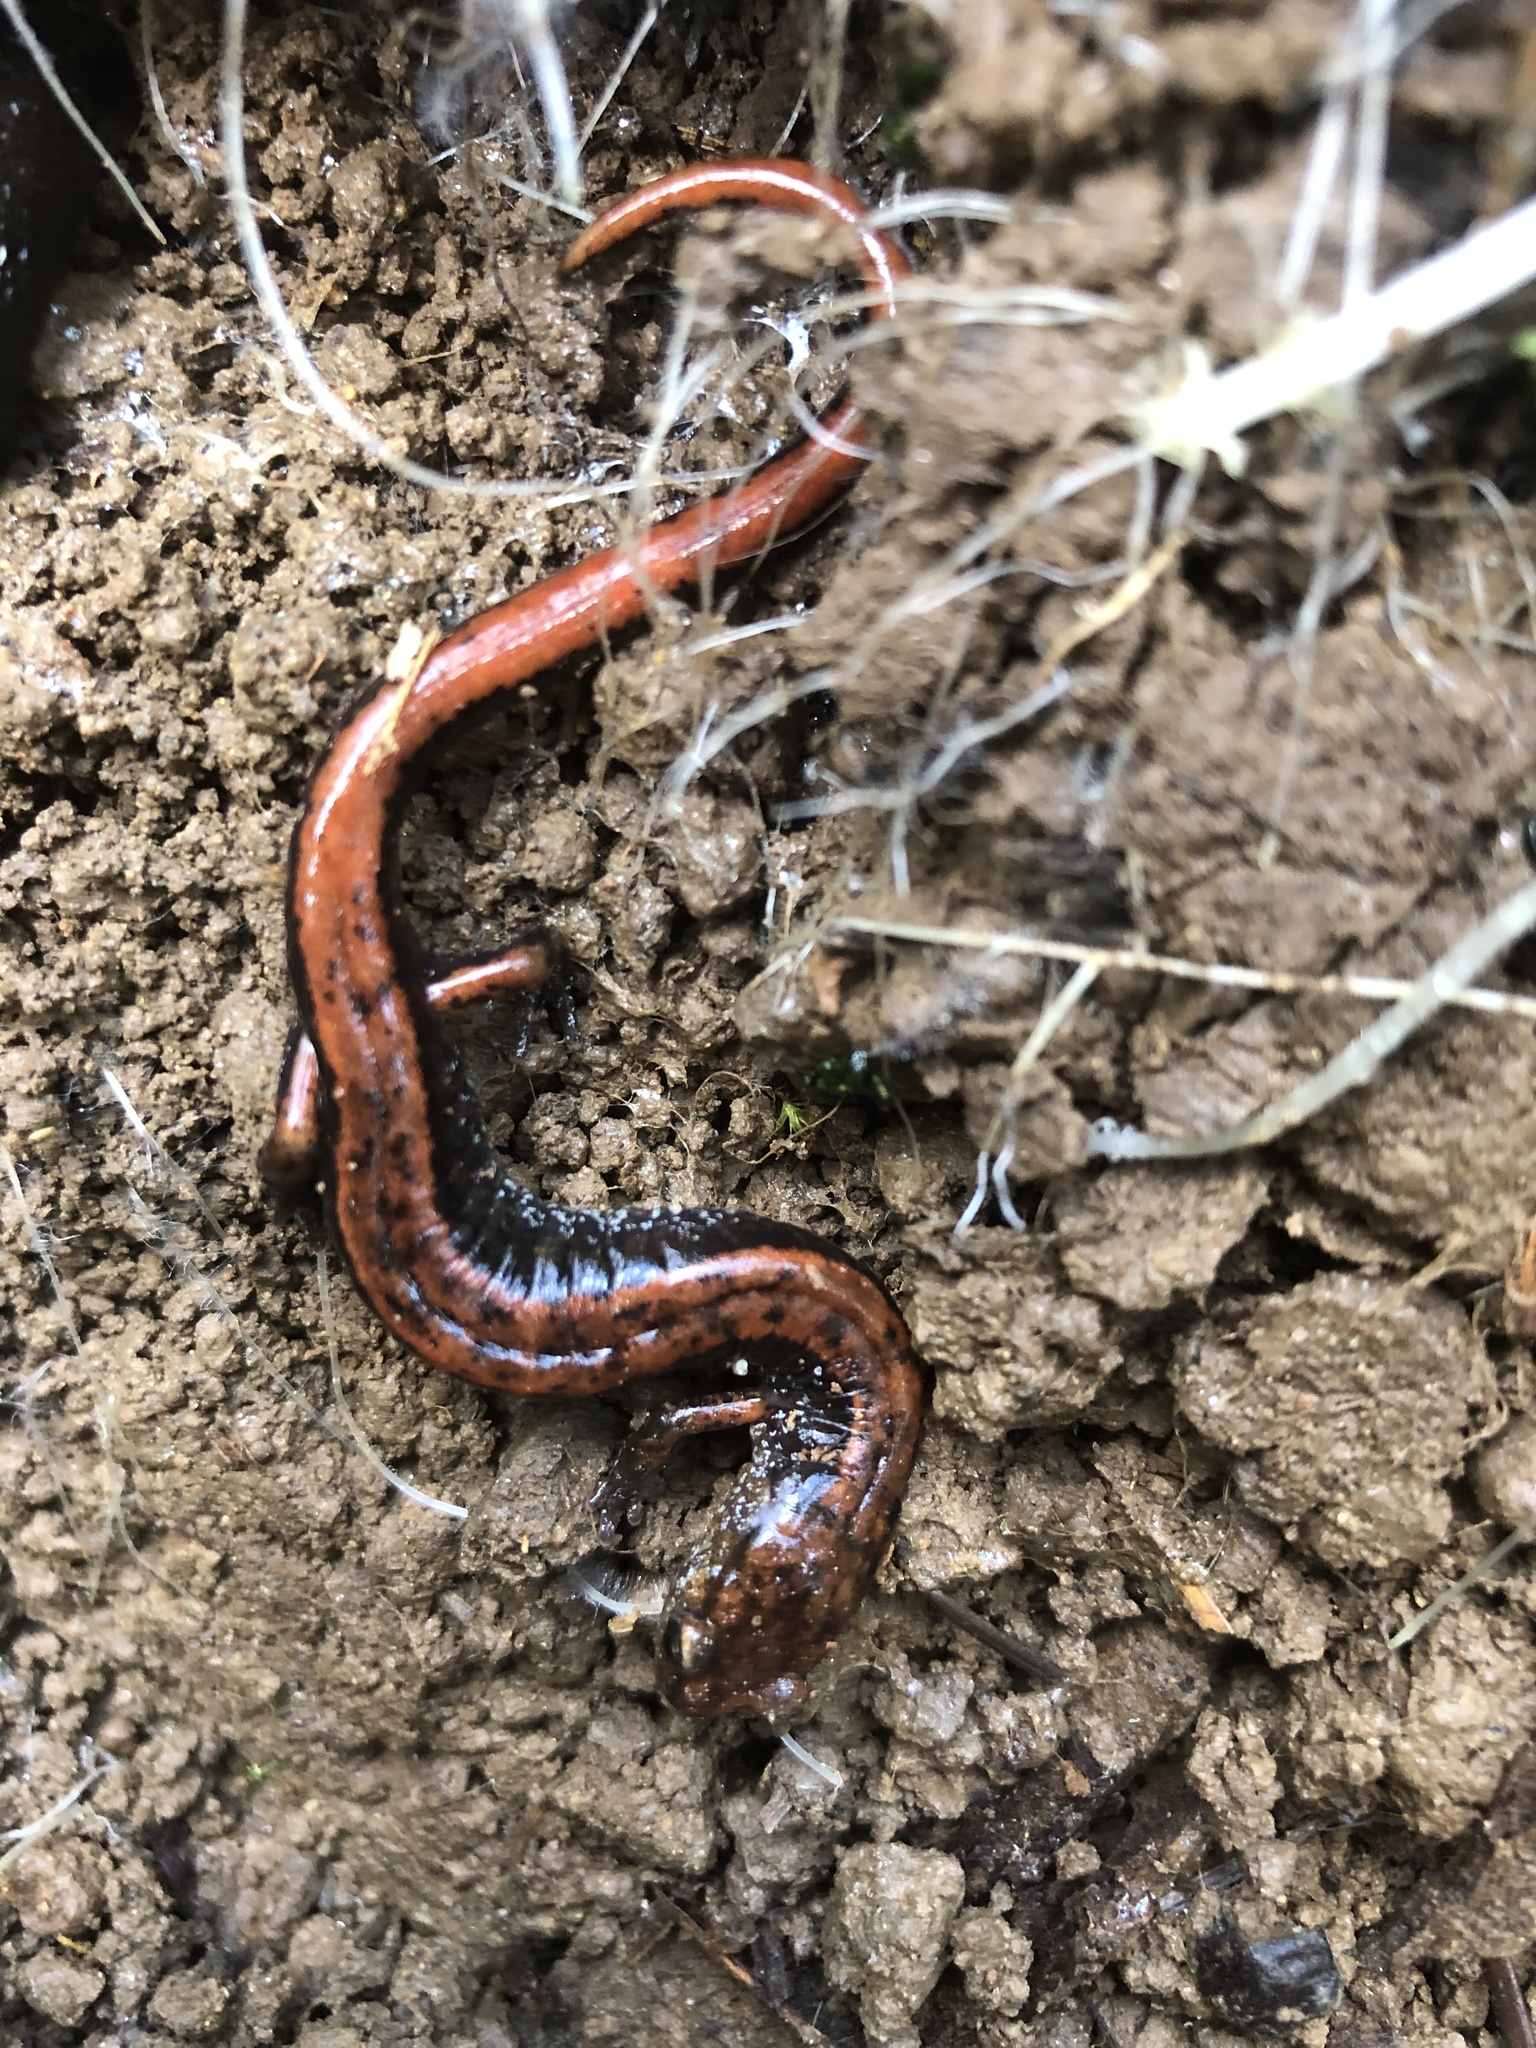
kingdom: Animalia
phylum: Chordata
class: Amphibia
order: Caudata
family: Plethodontidae
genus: Plethodon
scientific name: Plethodon vehiculum
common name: Western red-backed salamander
